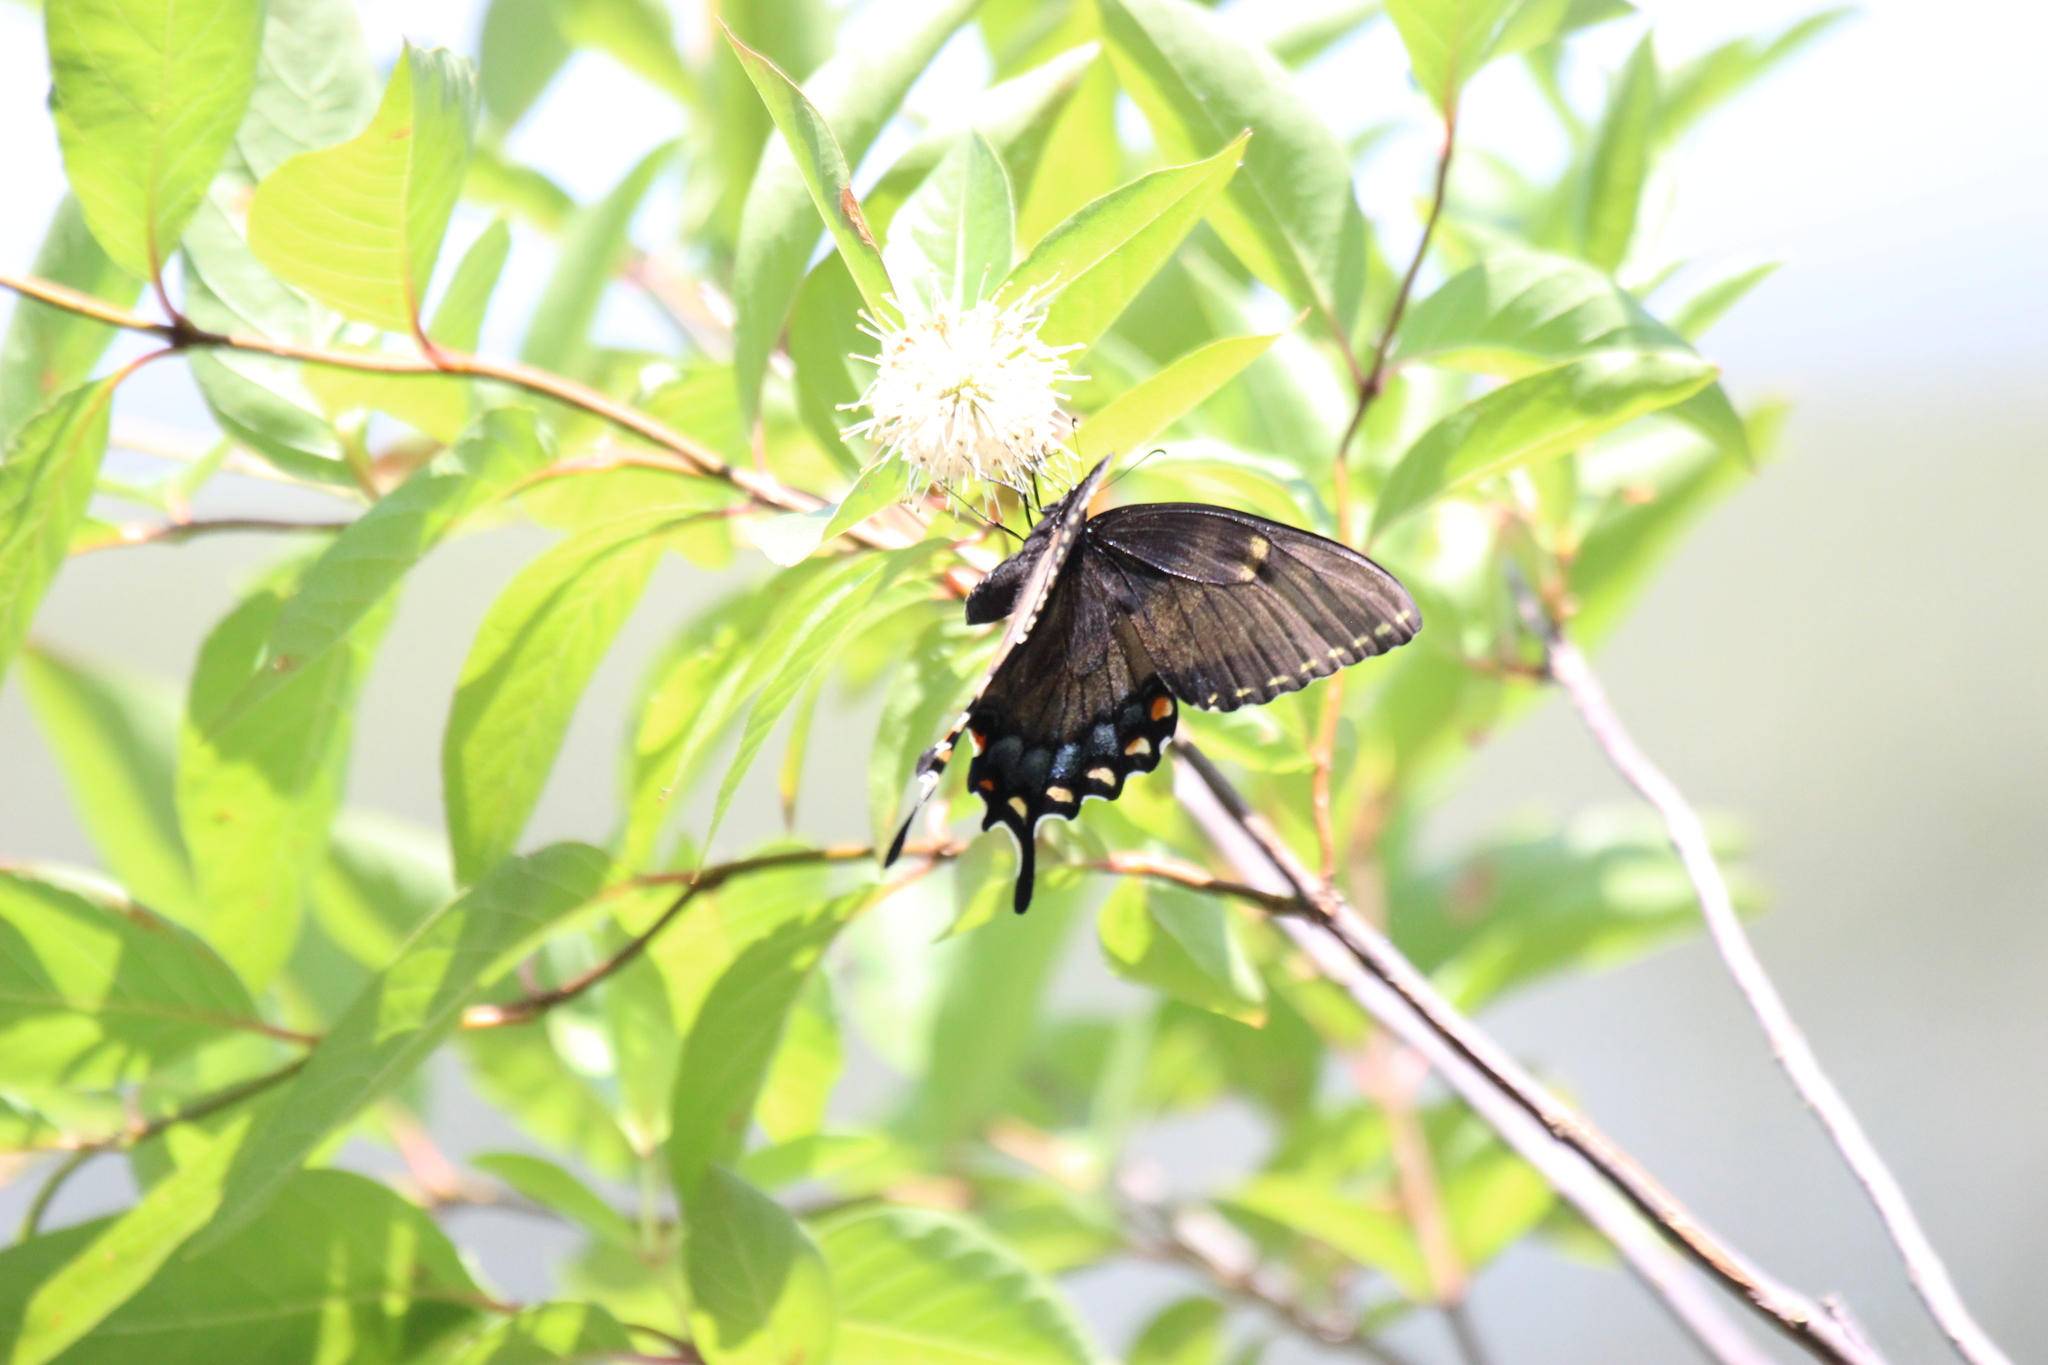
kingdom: Animalia
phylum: Arthropoda
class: Insecta
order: Lepidoptera
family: Papilionidae
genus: Papilio
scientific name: Papilio glaucus
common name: Tiger swallowtail
